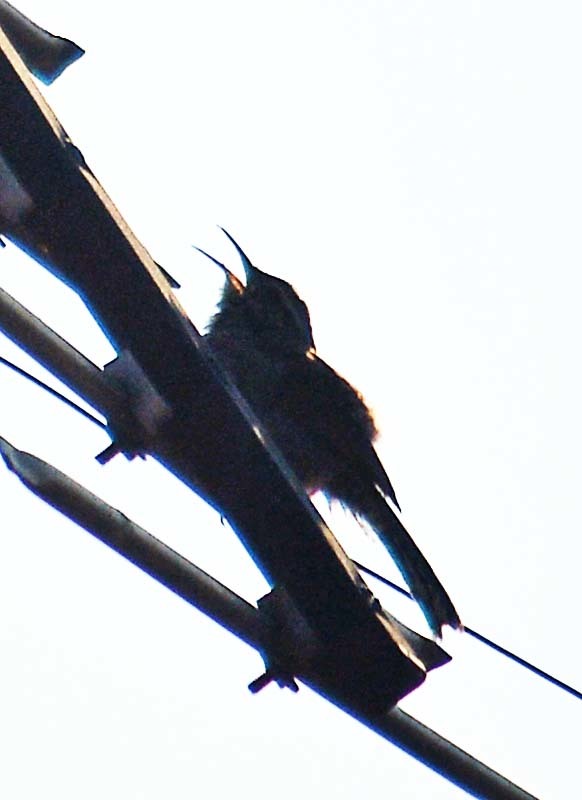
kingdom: Animalia
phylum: Chordata
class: Aves
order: Passeriformes
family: Troglodytidae
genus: Thryomanes
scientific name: Thryomanes bewickii
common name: Bewick's wren
